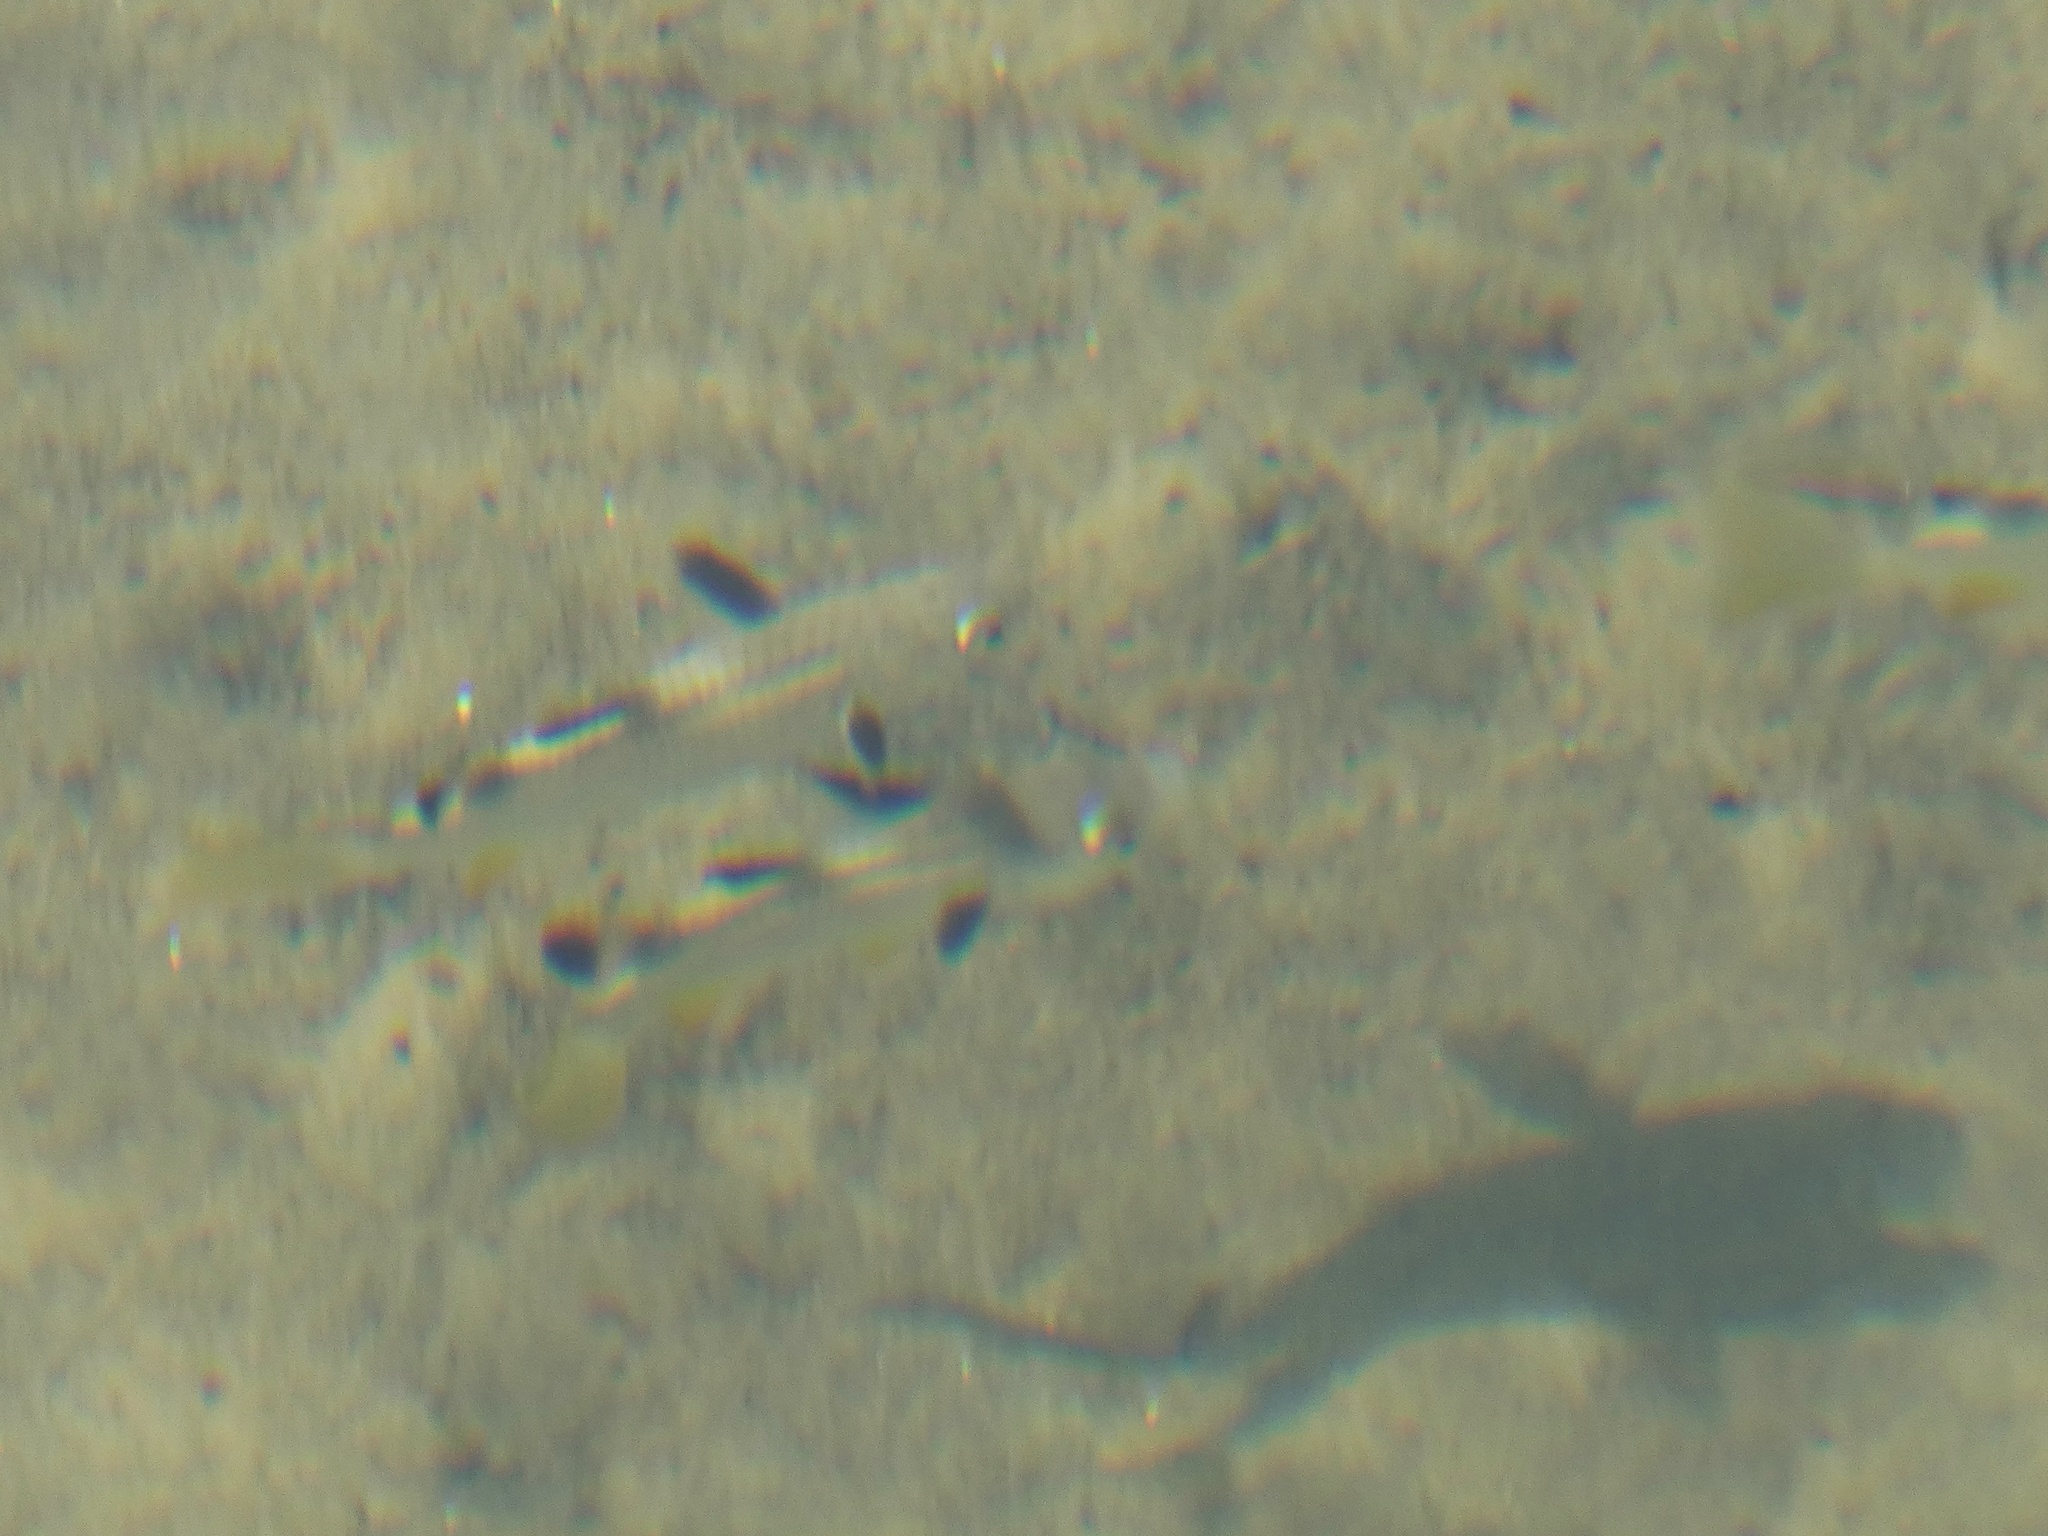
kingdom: Animalia
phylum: Chordata
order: Mugiliformes
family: Mugilidae
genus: Ellochelon
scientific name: Ellochelon vaigiensis
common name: Squaretail mullet
